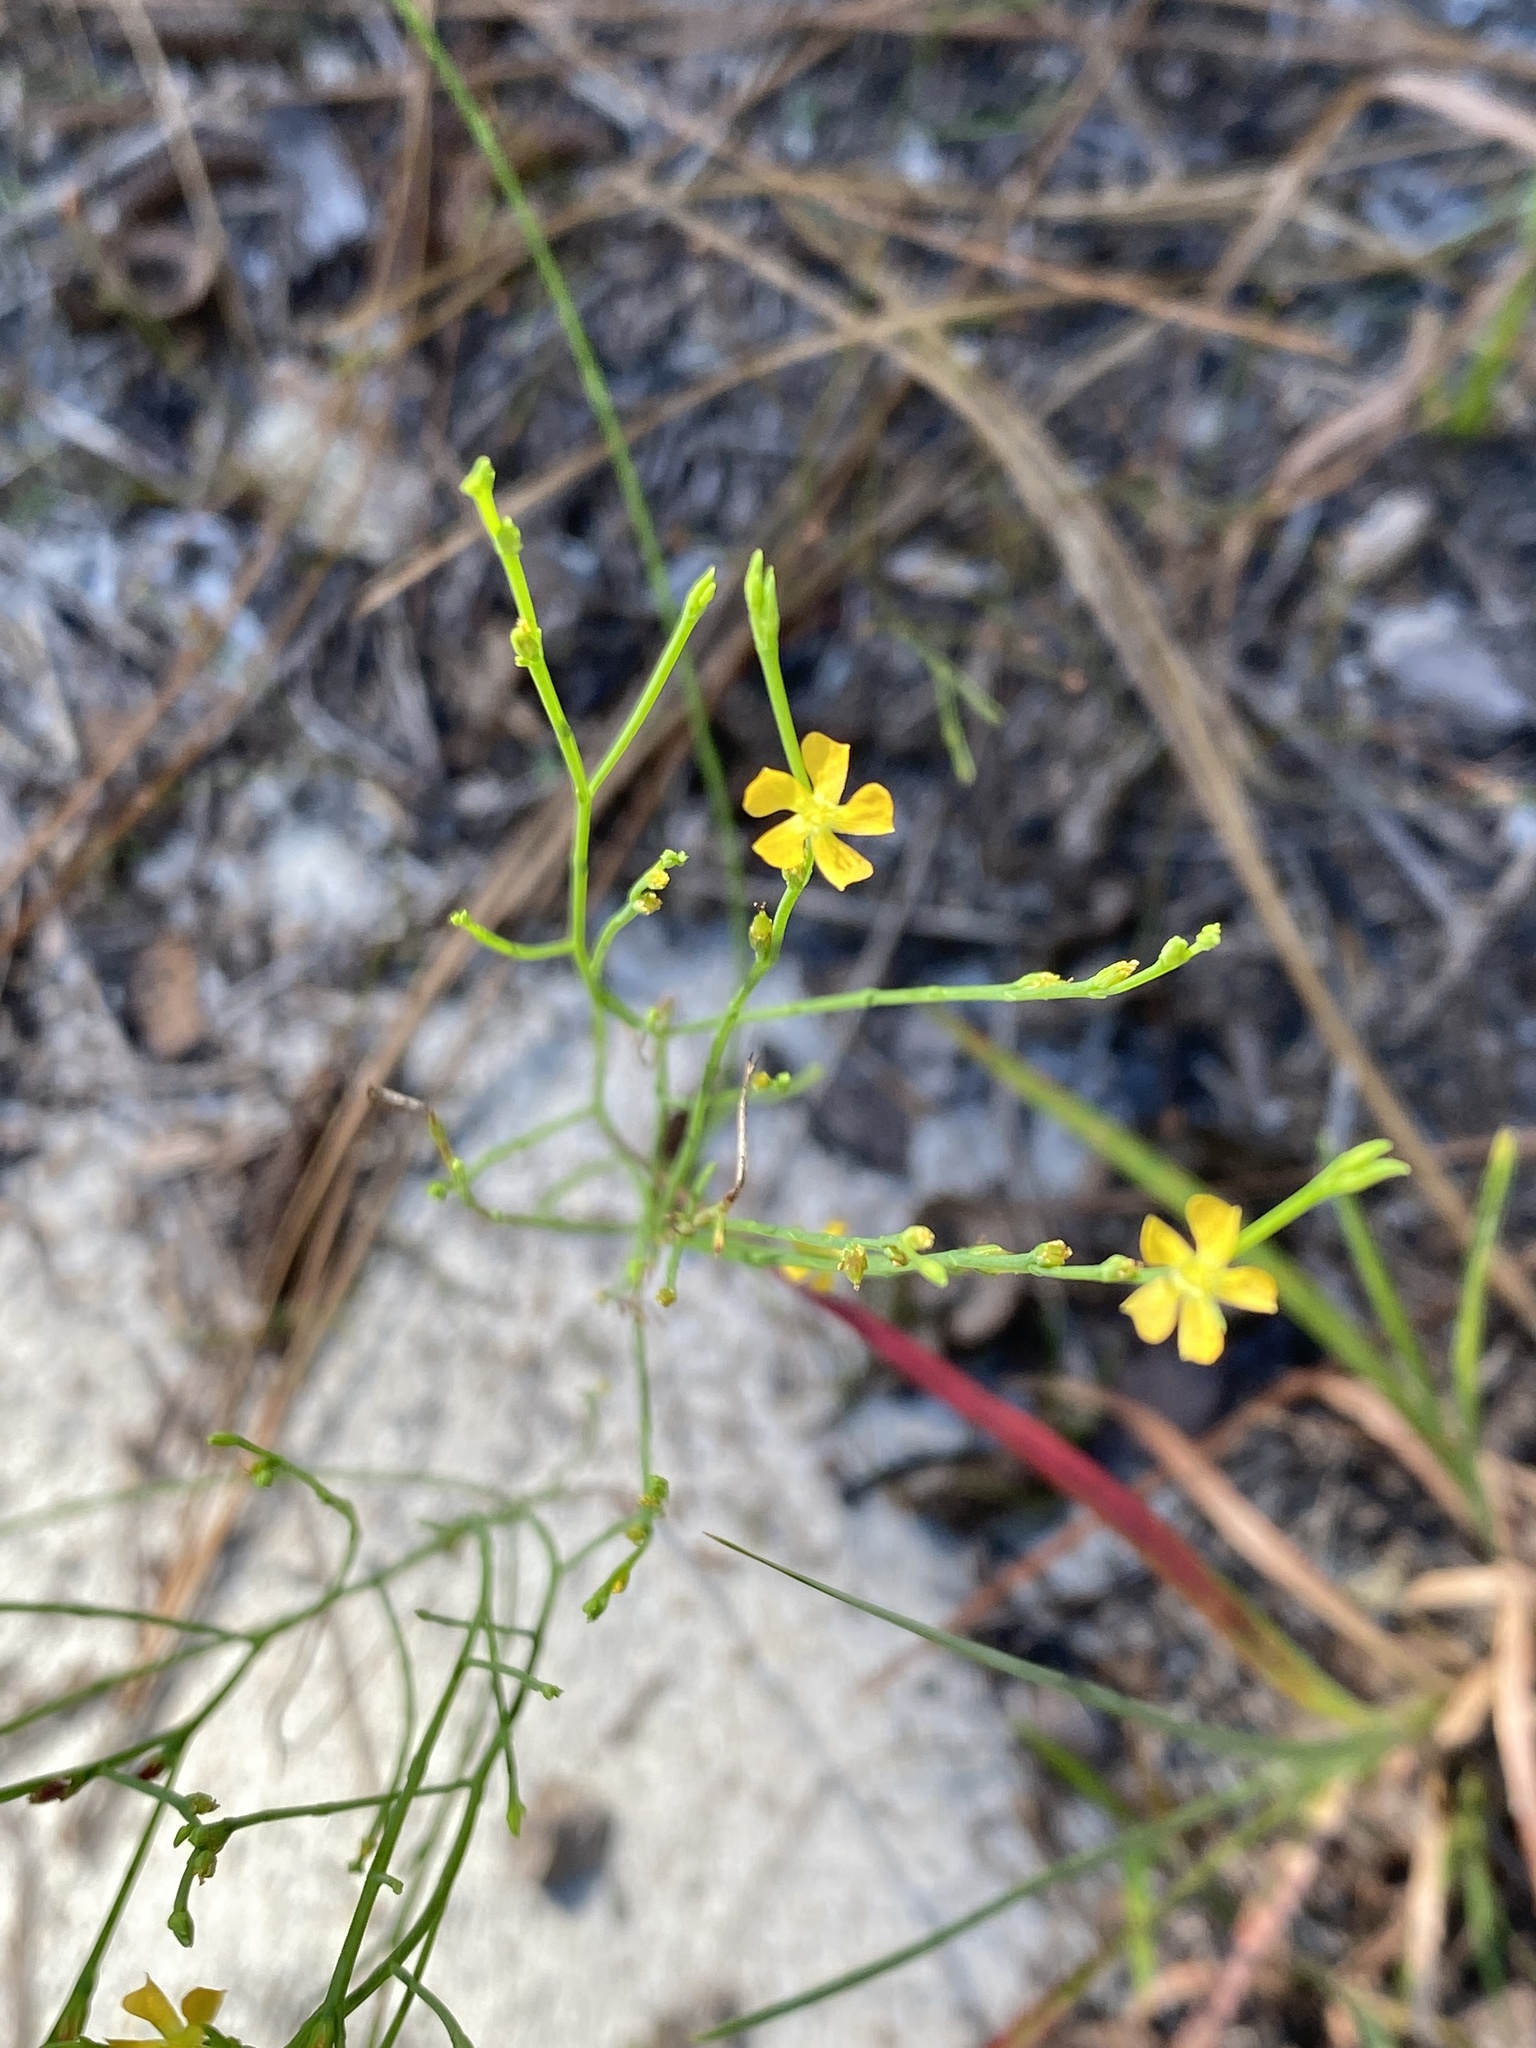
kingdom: Plantae
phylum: Tracheophyta
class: Magnoliopsida
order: Malpighiales
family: Hypericaceae
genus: Hypericum
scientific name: Hypericum gentianoides
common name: Gentian-leaved st. john's-wort
